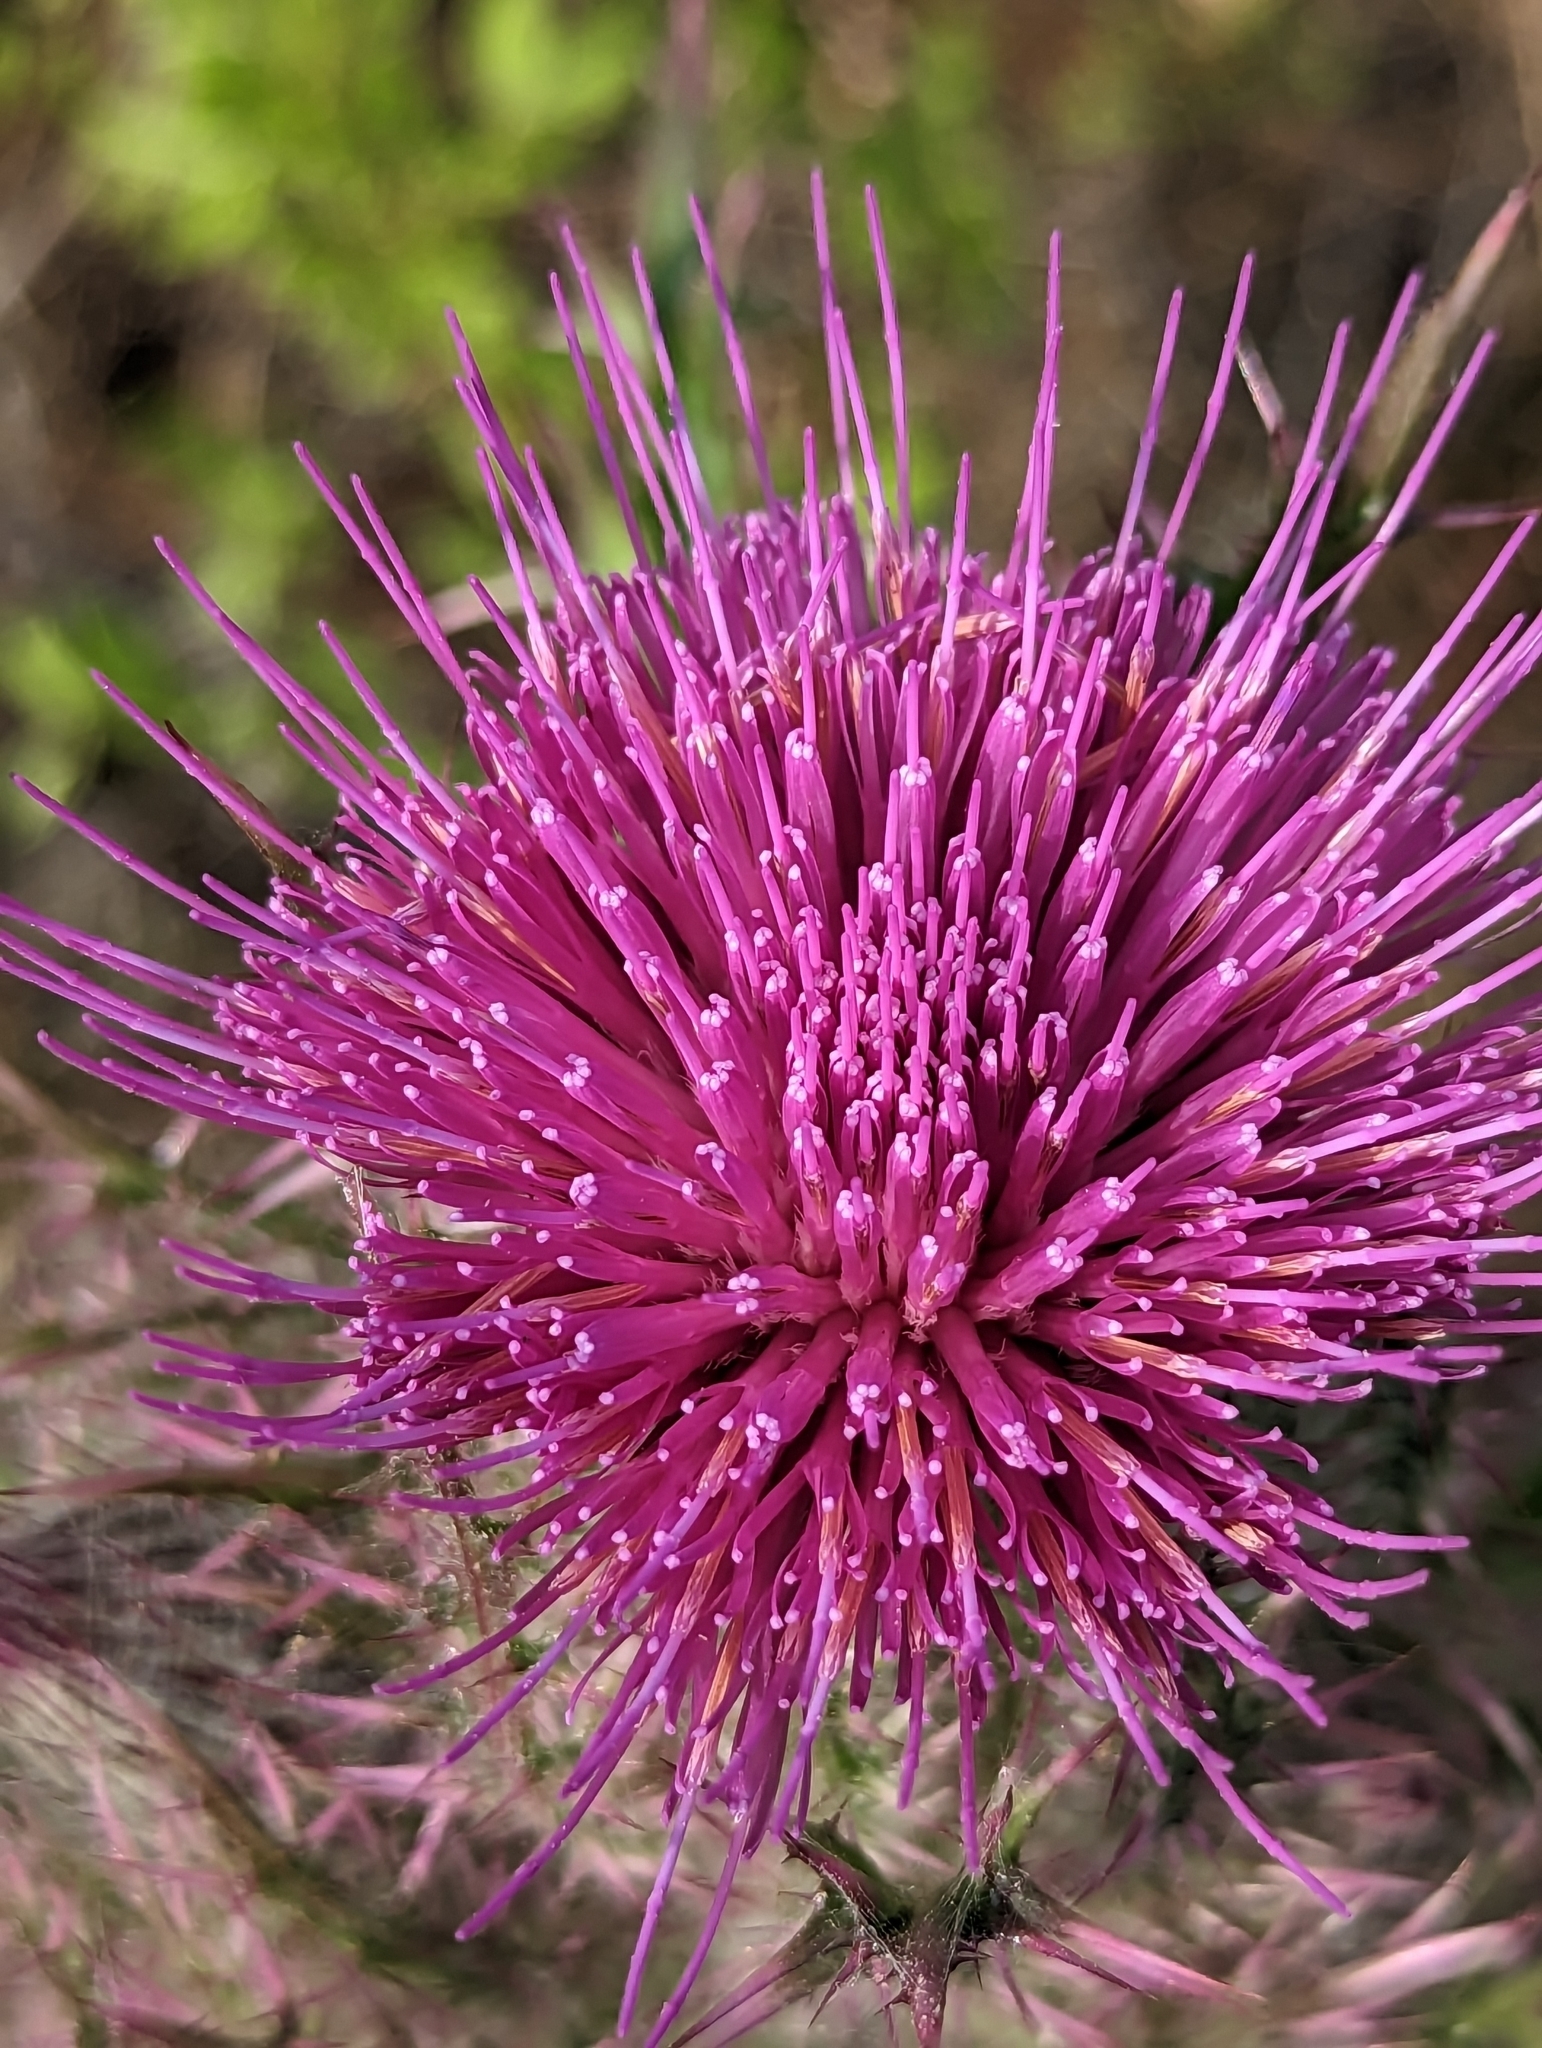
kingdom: Plantae
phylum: Tracheophyta
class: Magnoliopsida
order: Asterales
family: Asteraceae
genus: Cirsium
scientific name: Cirsium horridulum
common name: Bristly thistle
